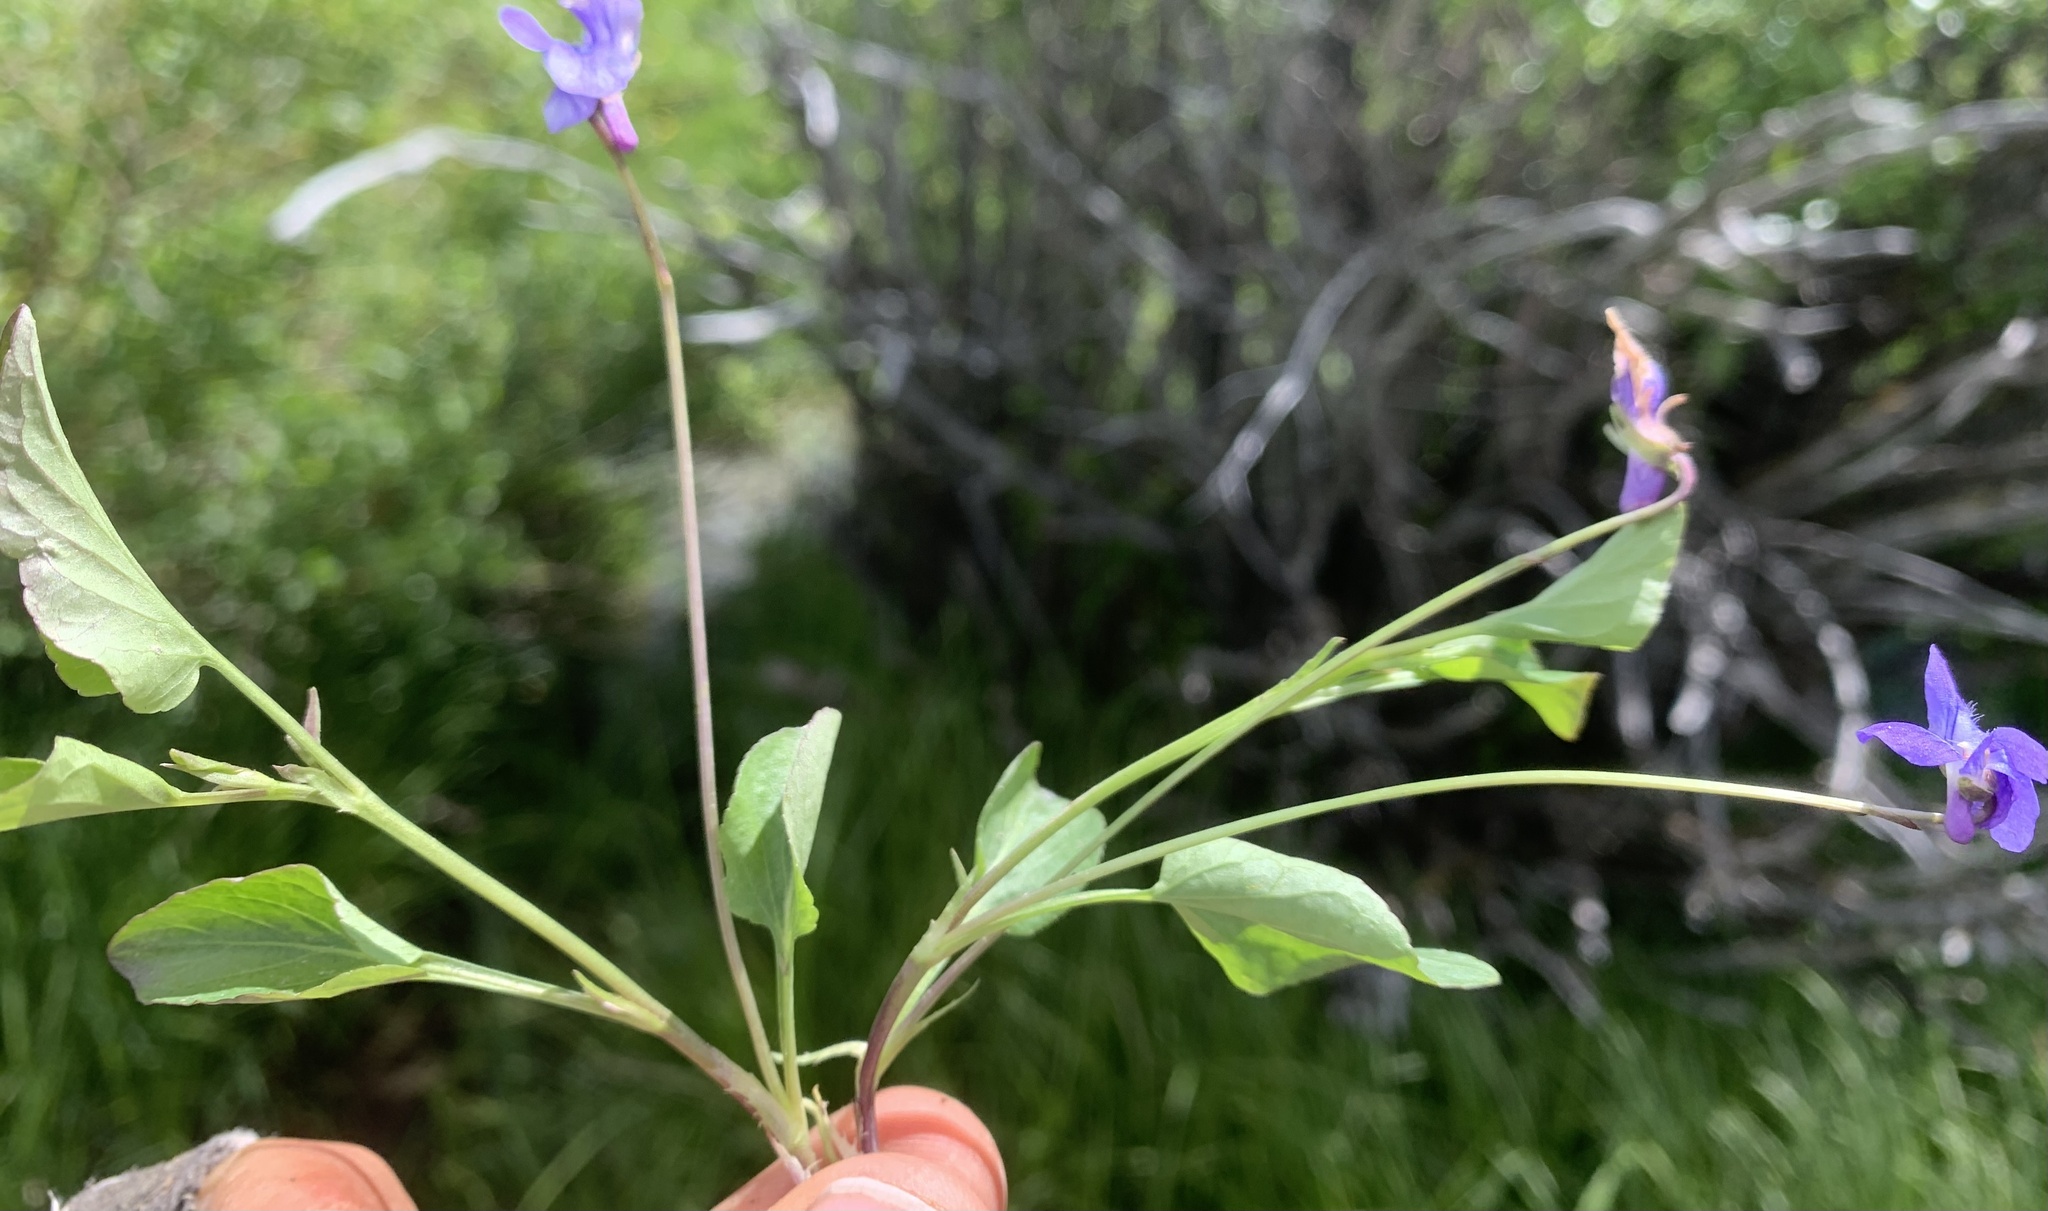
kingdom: Plantae
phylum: Tracheophyta
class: Magnoliopsida
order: Malpighiales
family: Violaceae
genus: Viola
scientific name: Viola adunca
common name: Sand violet
